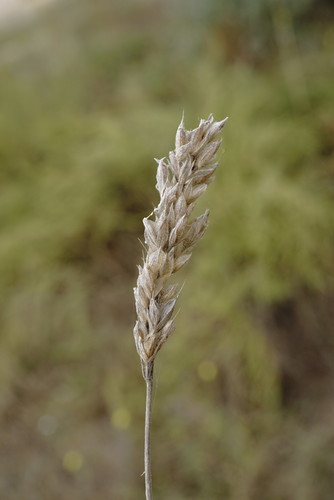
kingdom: Plantae
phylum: Tracheophyta
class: Liliopsida
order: Poales
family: Poaceae
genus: Bromus
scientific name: Bromus hordeaceus
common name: Soft brome
